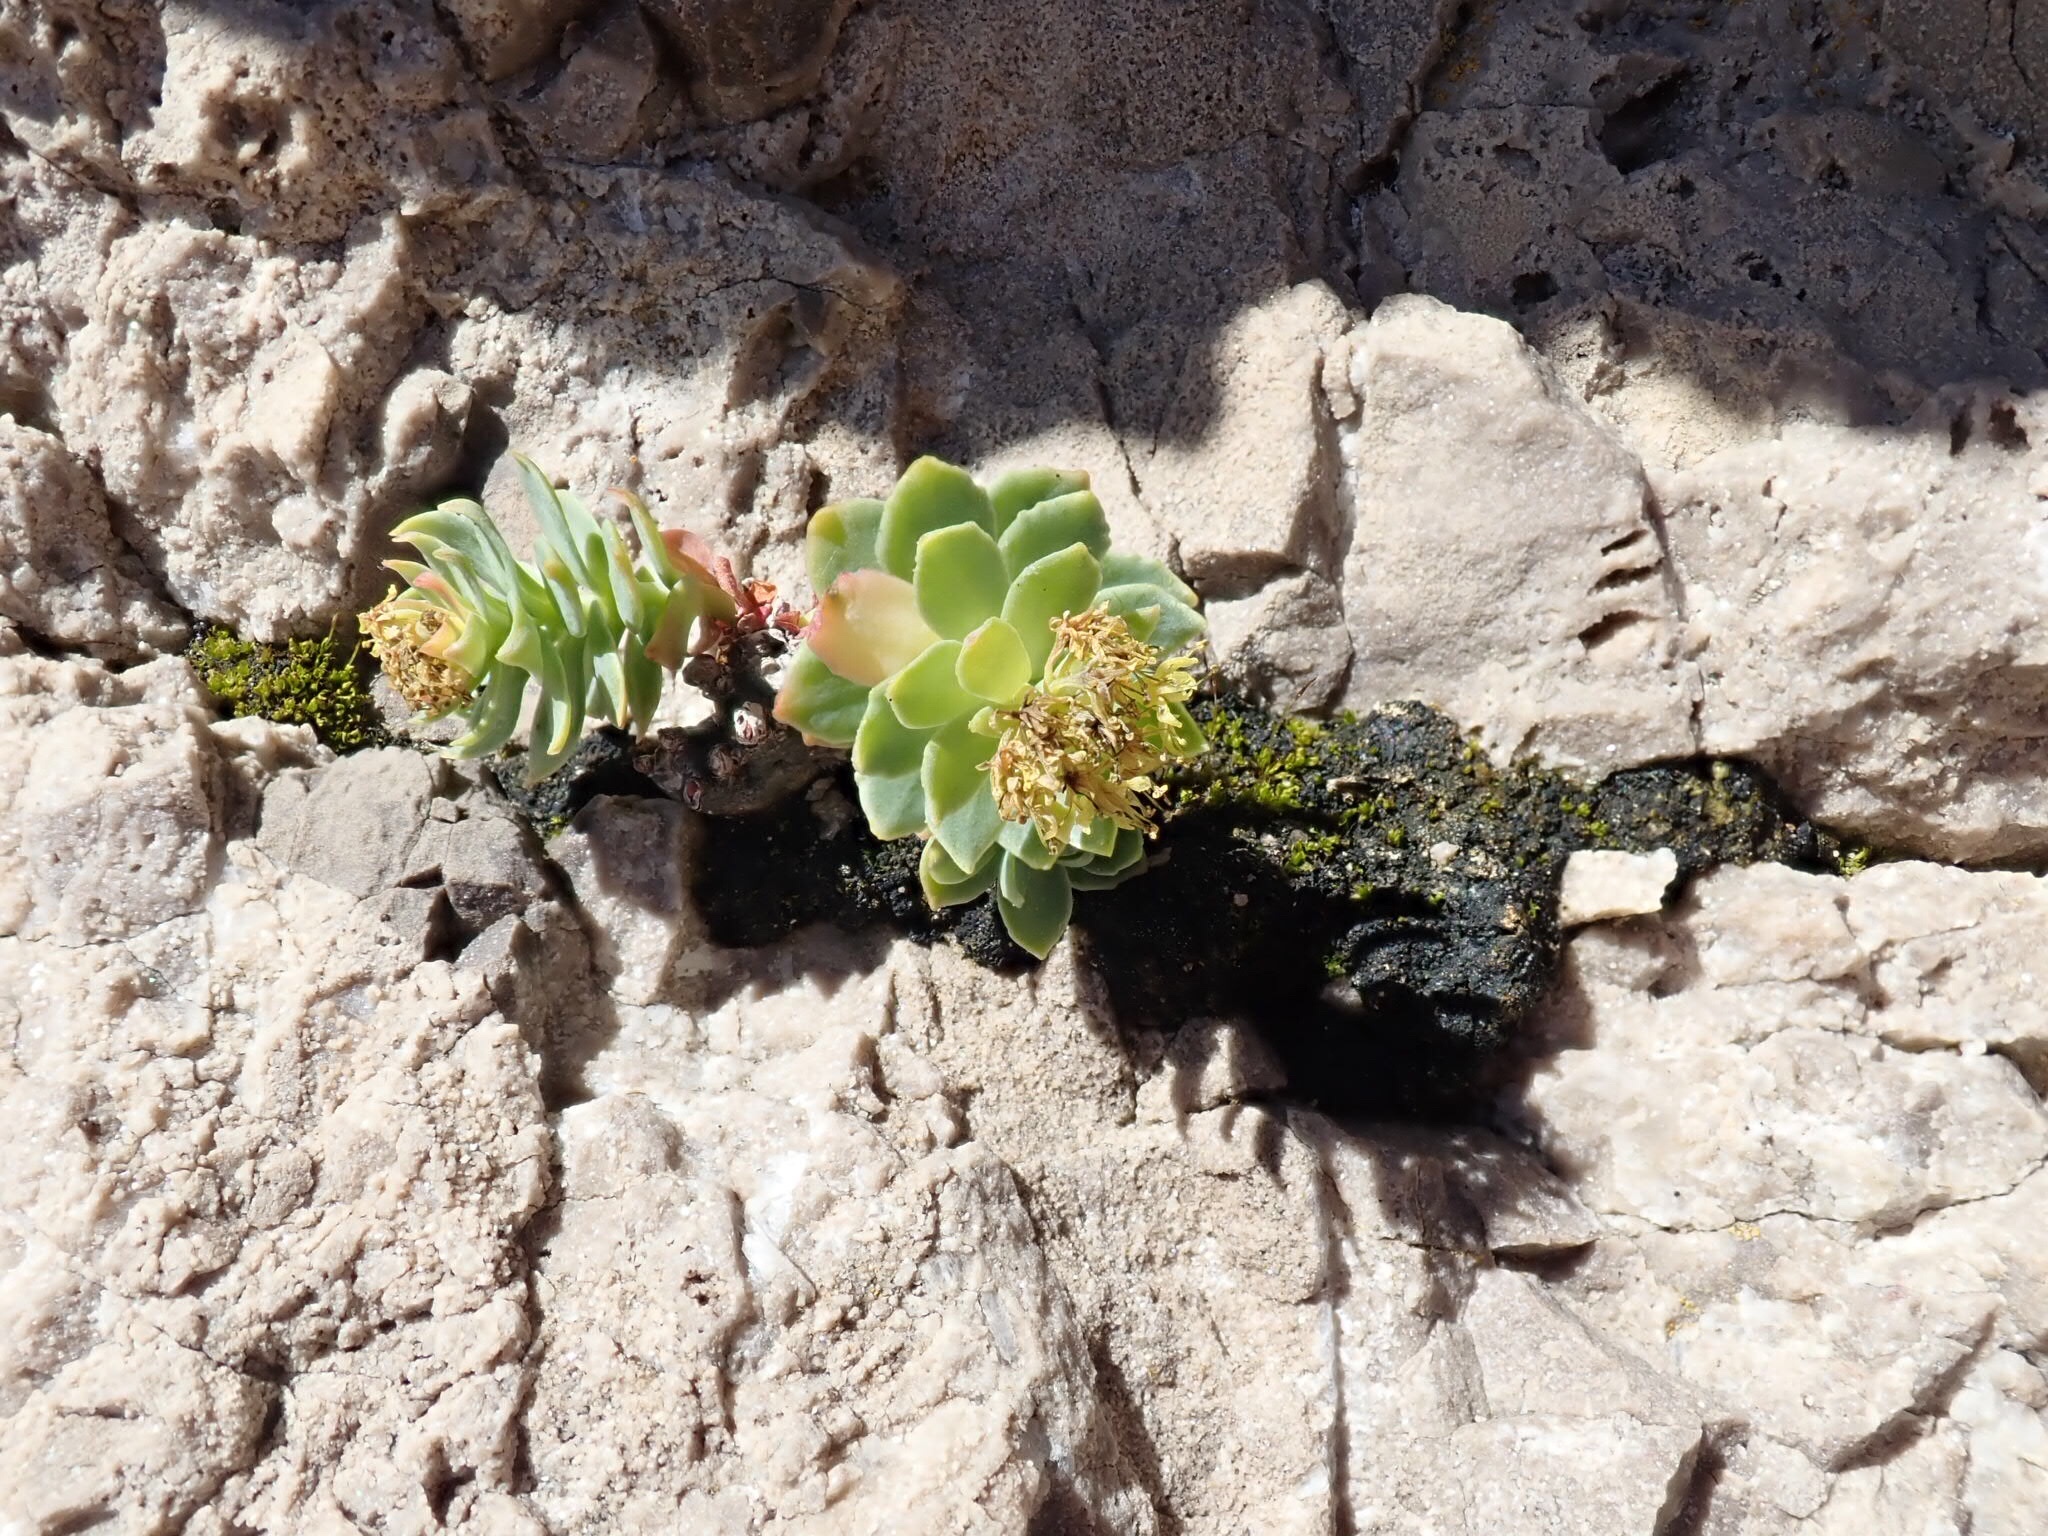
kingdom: Plantae
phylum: Tracheophyta
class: Magnoliopsida
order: Saxifragales
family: Crassulaceae
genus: Rhodiola
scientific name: Rhodiola rosea
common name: Roseroot
